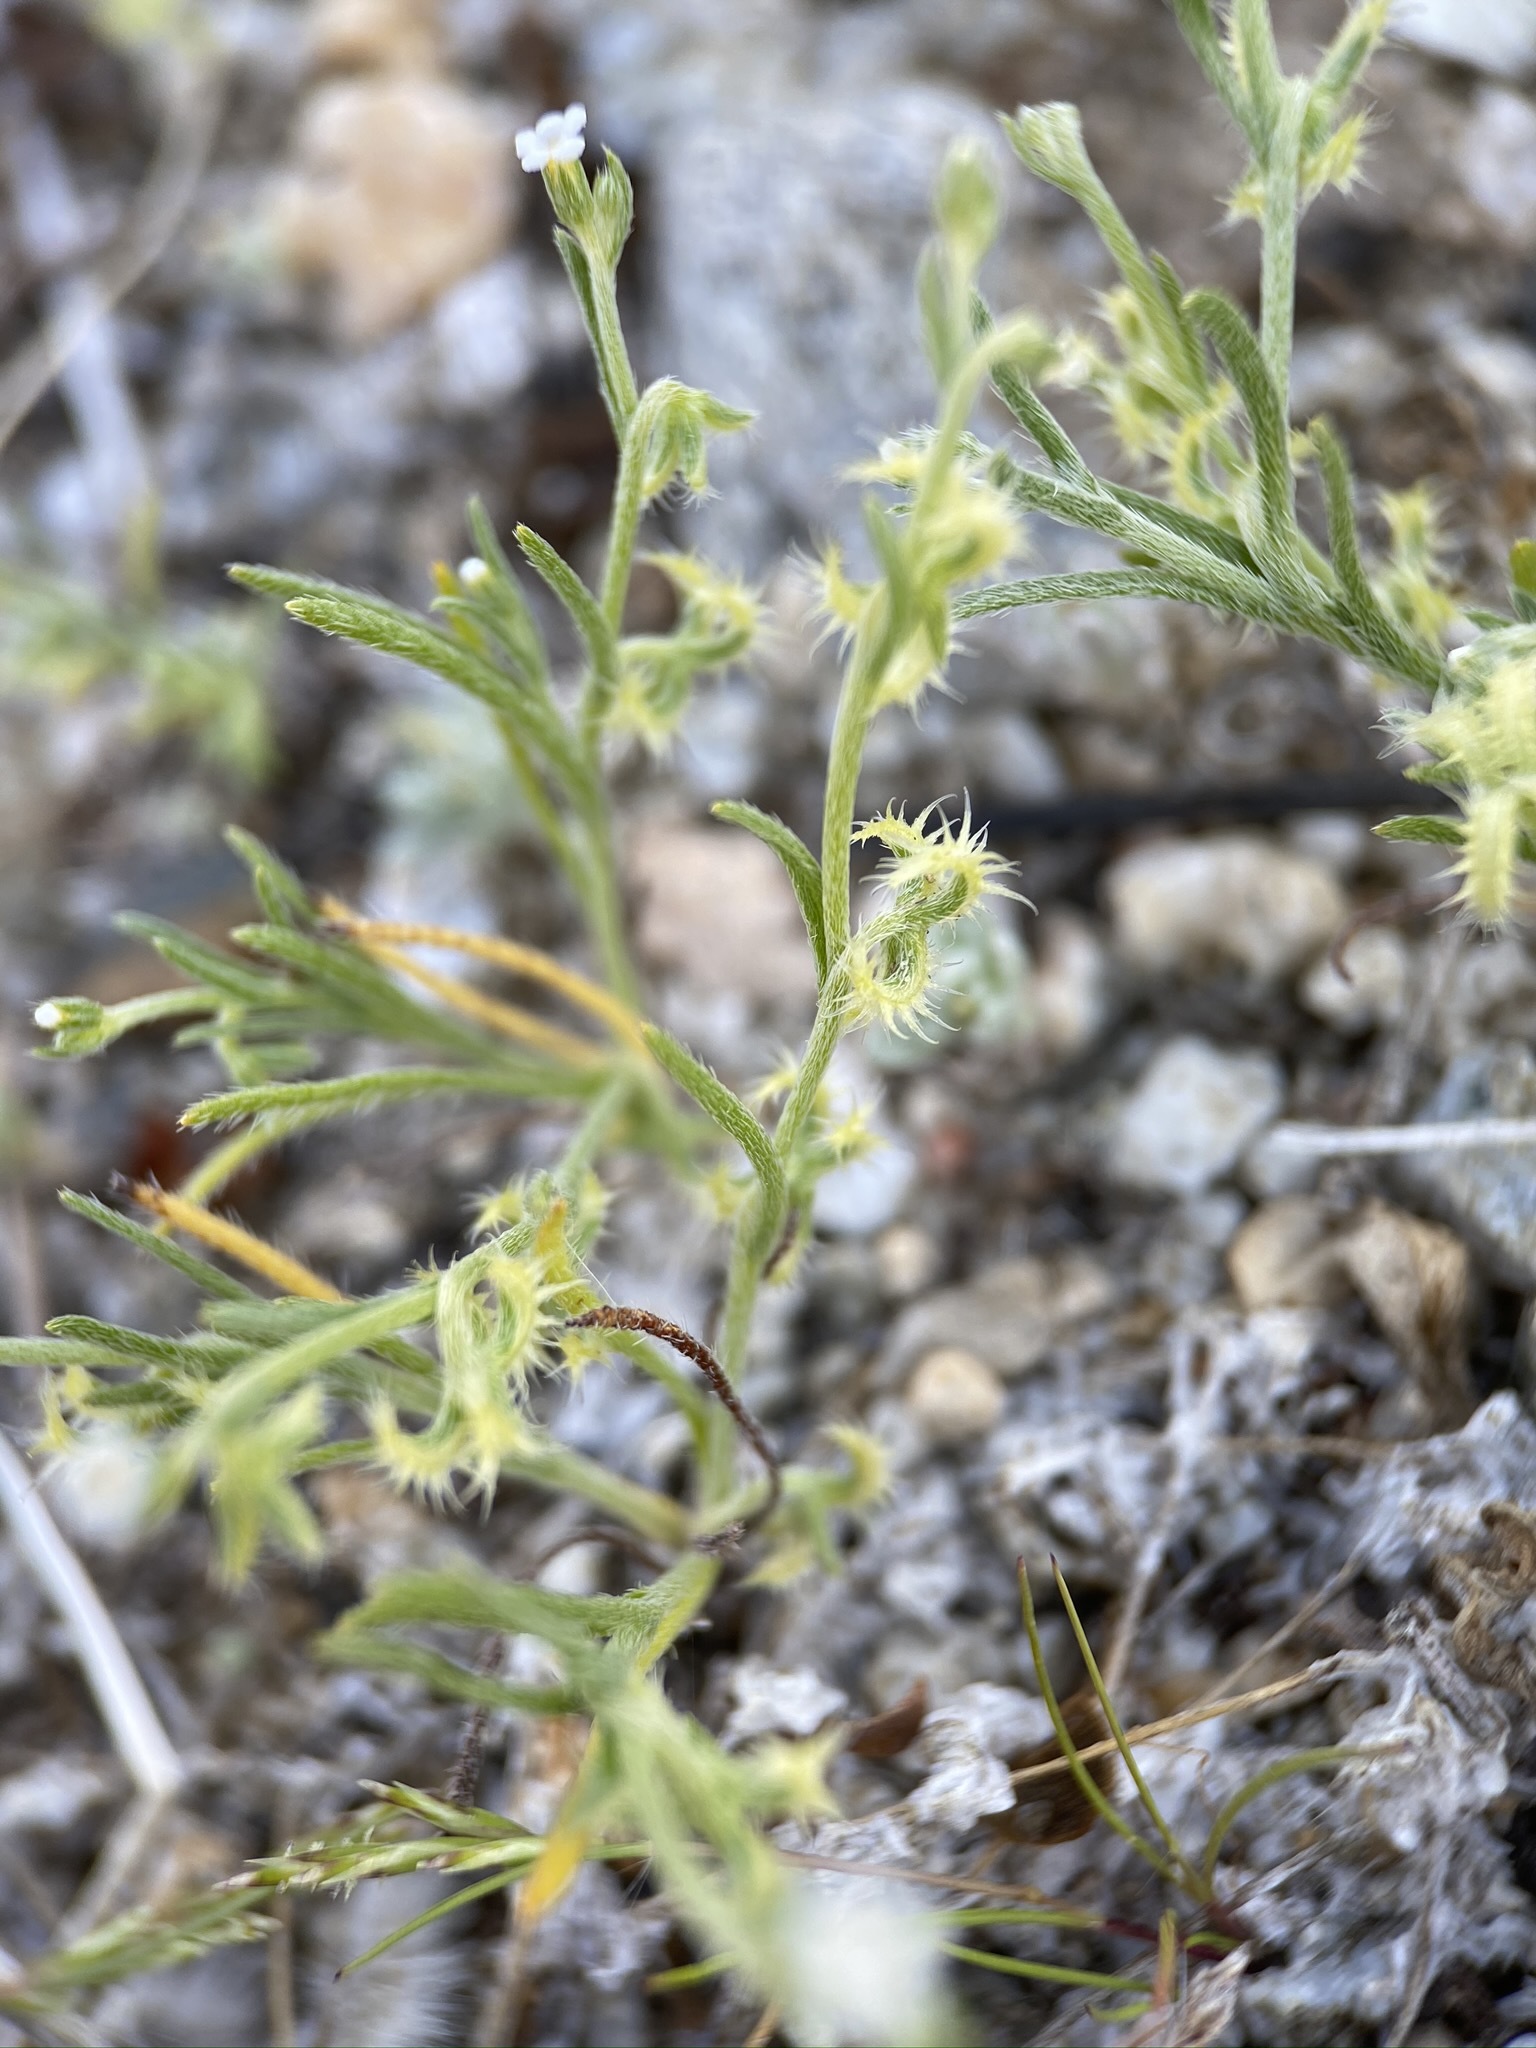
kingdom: Plantae
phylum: Tracheophyta
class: Magnoliopsida
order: Boraginales
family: Boraginaceae
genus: Pectocarya
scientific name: Pectocarya recurvata
